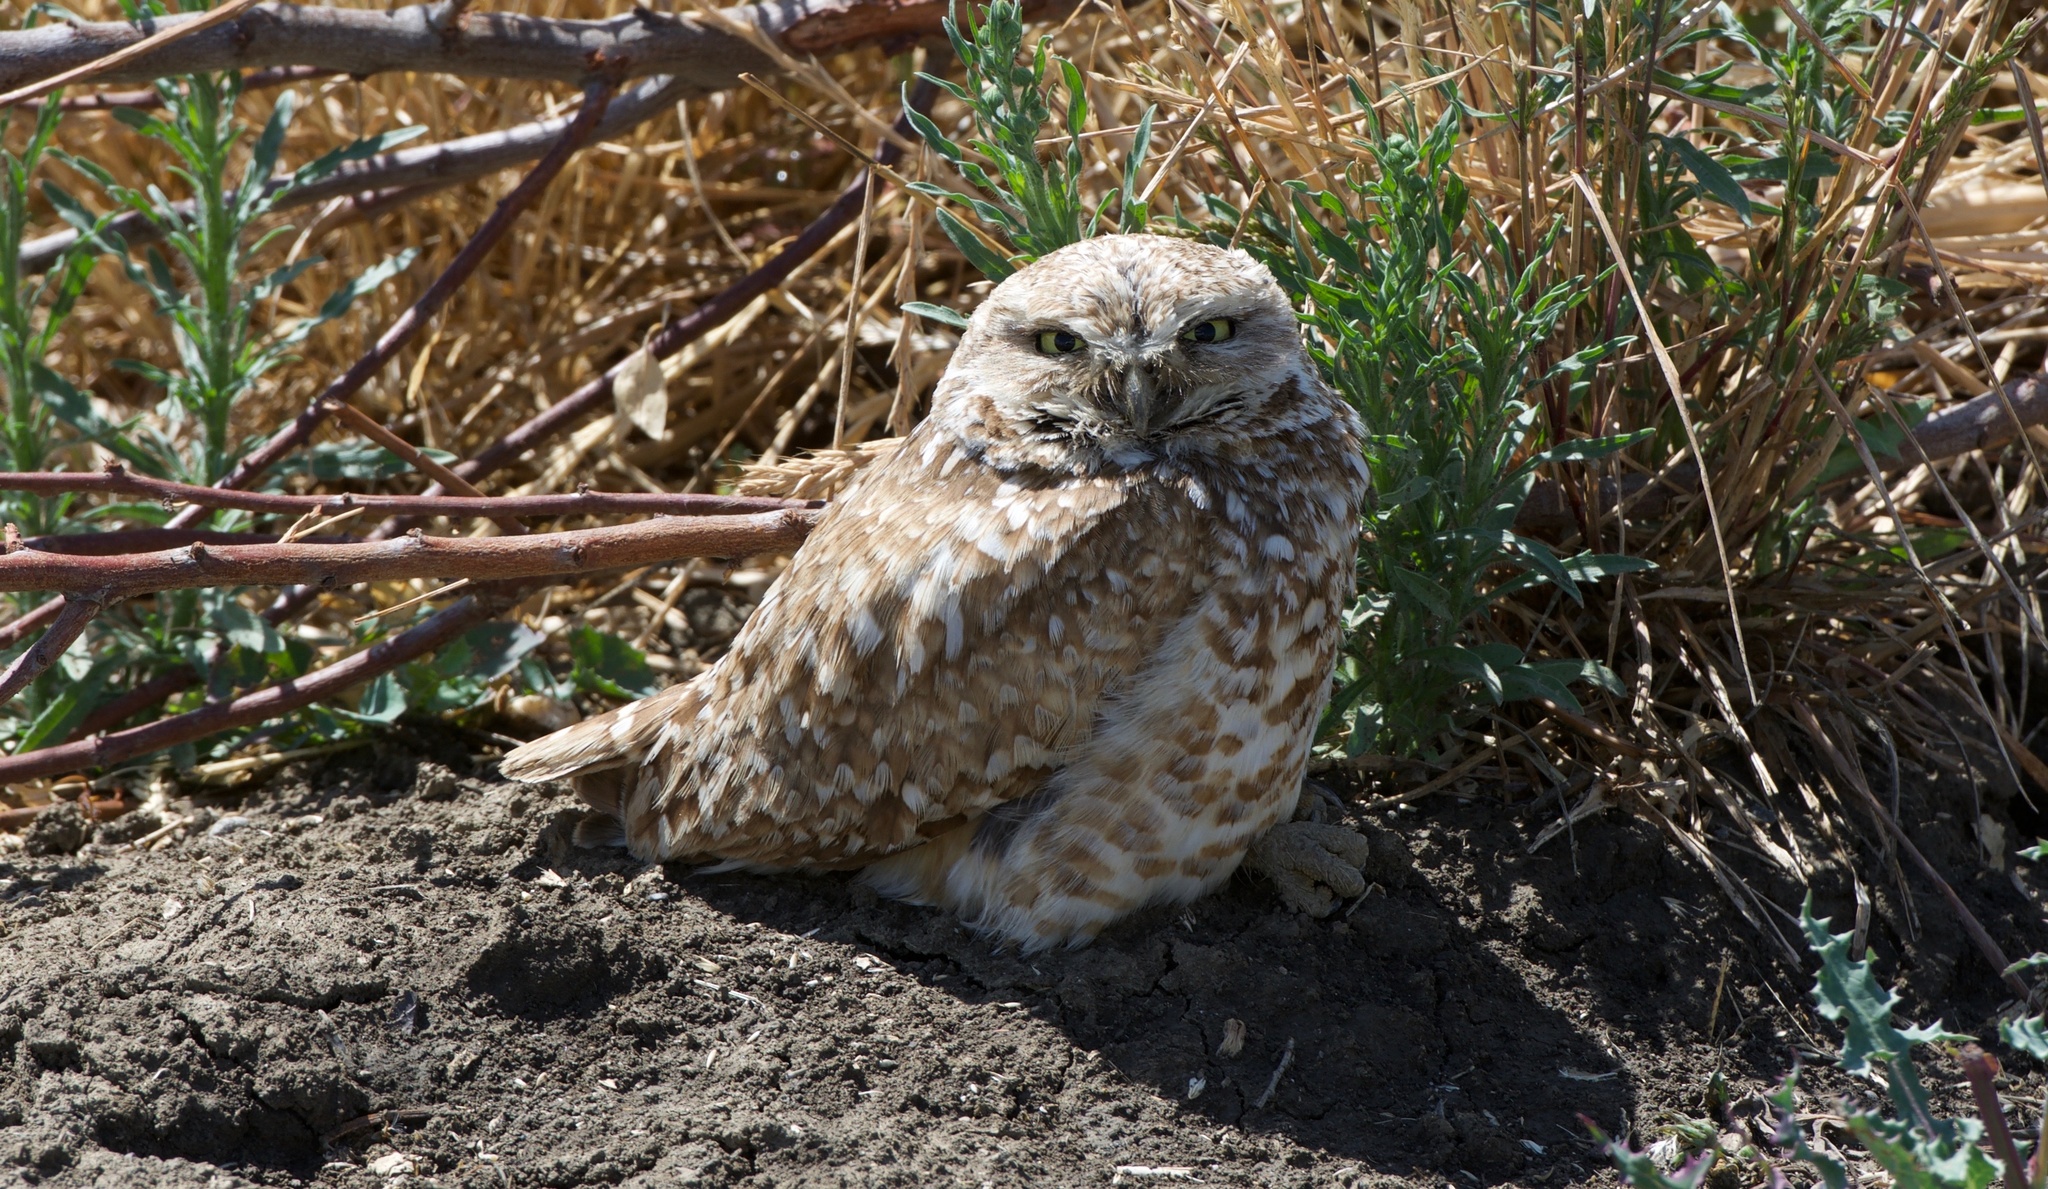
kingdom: Animalia
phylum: Chordata
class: Aves
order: Strigiformes
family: Strigidae
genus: Athene
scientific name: Athene cunicularia
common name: Burrowing owl
